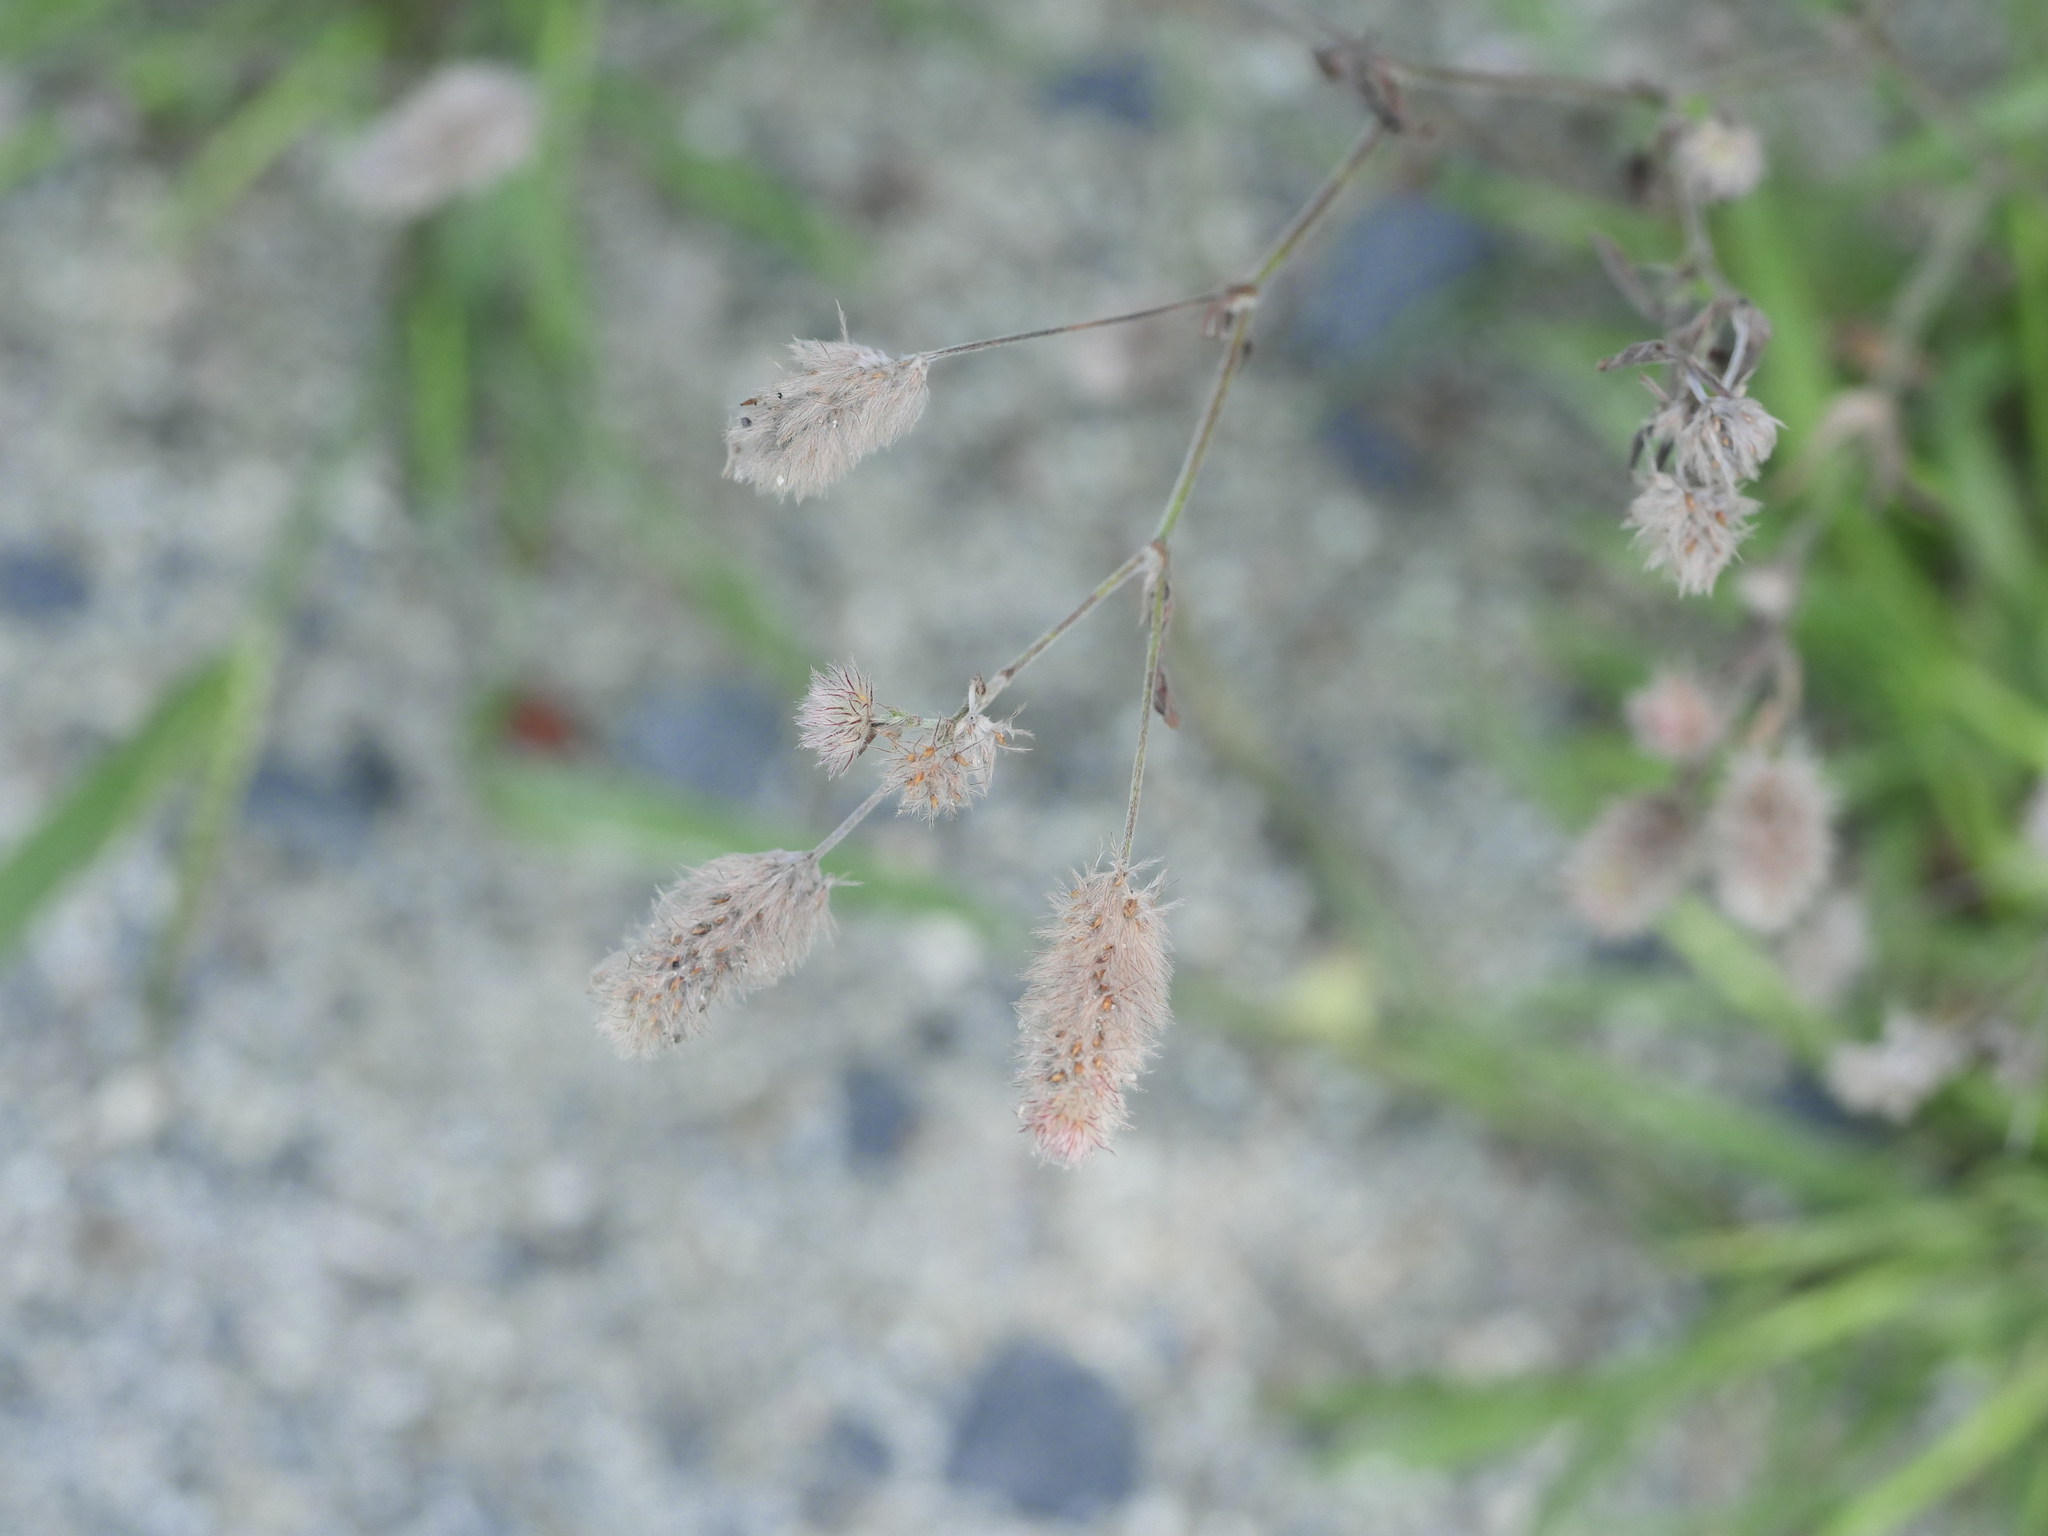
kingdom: Plantae
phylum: Tracheophyta
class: Magnoliopsida
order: Fabales
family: Fabaceae
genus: Trifolium
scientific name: Trifolium arvense
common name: Hare's-foot clover
